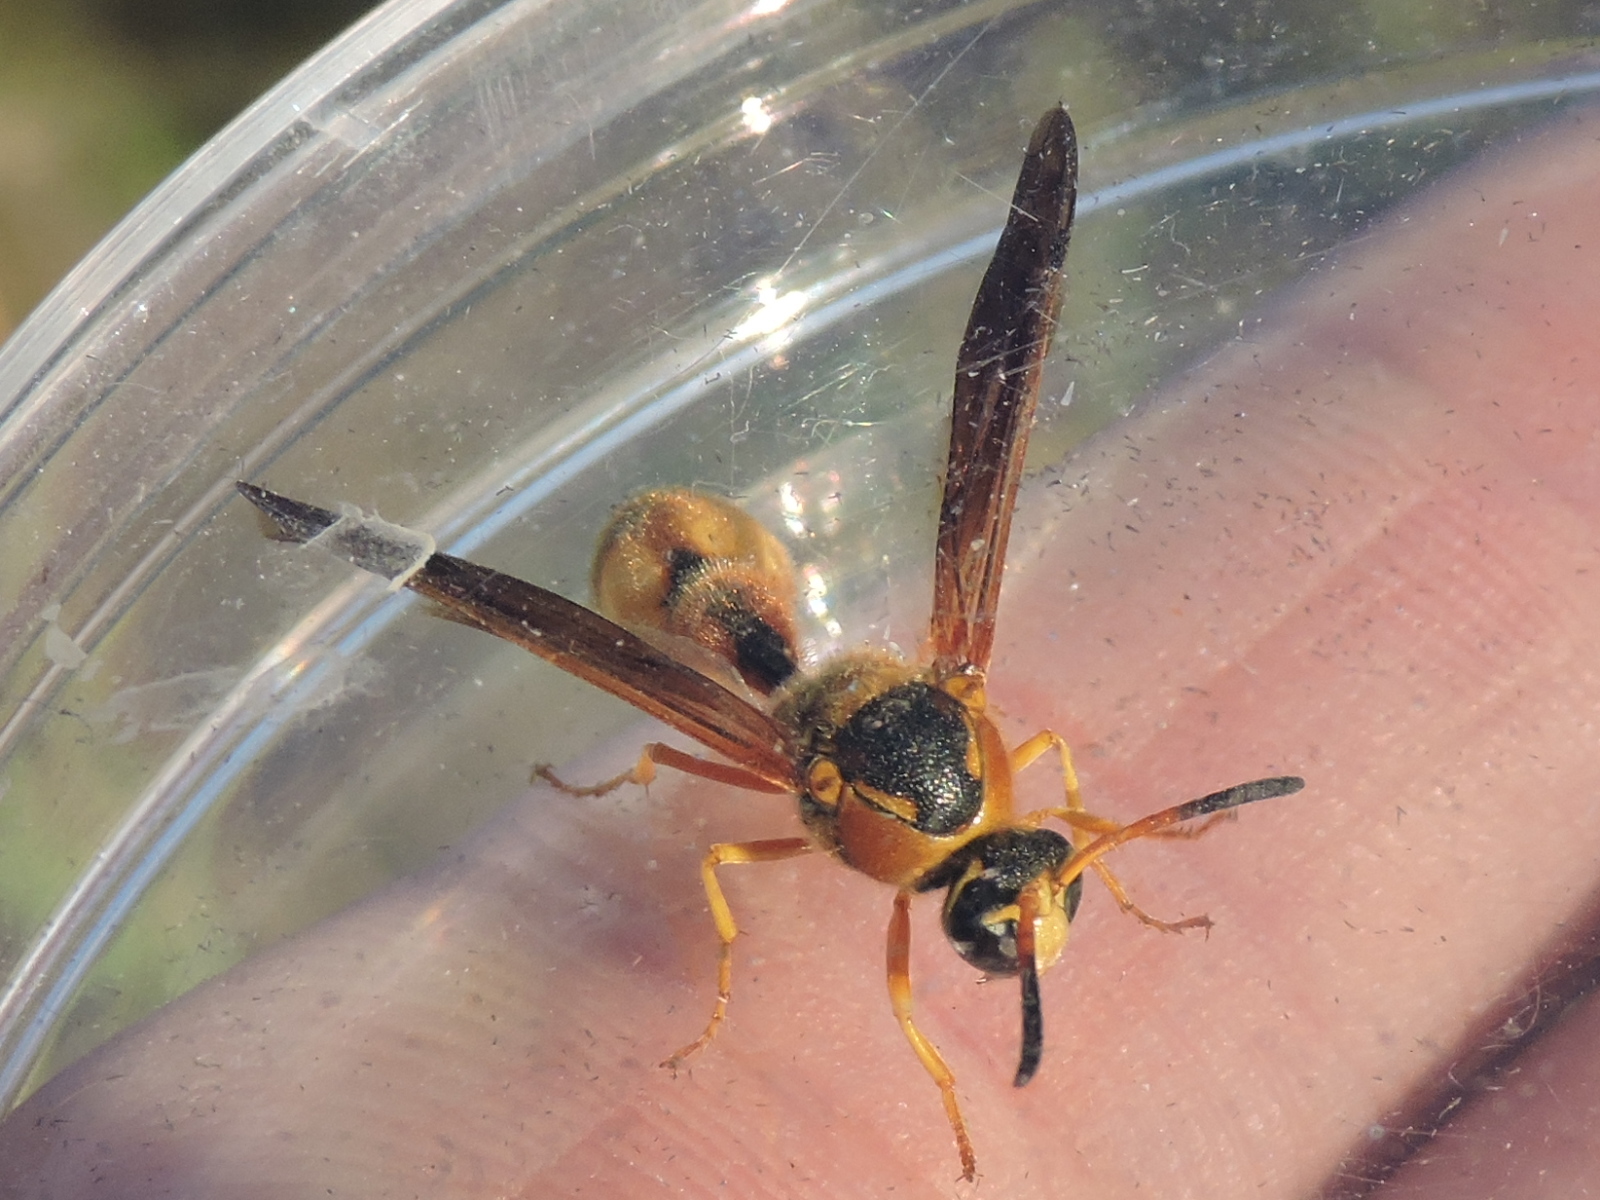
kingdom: Animalia
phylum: Arthropoda
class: Insecta
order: Hymenoptera
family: Vespidae
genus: Eumenes
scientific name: Eumenes bollii
